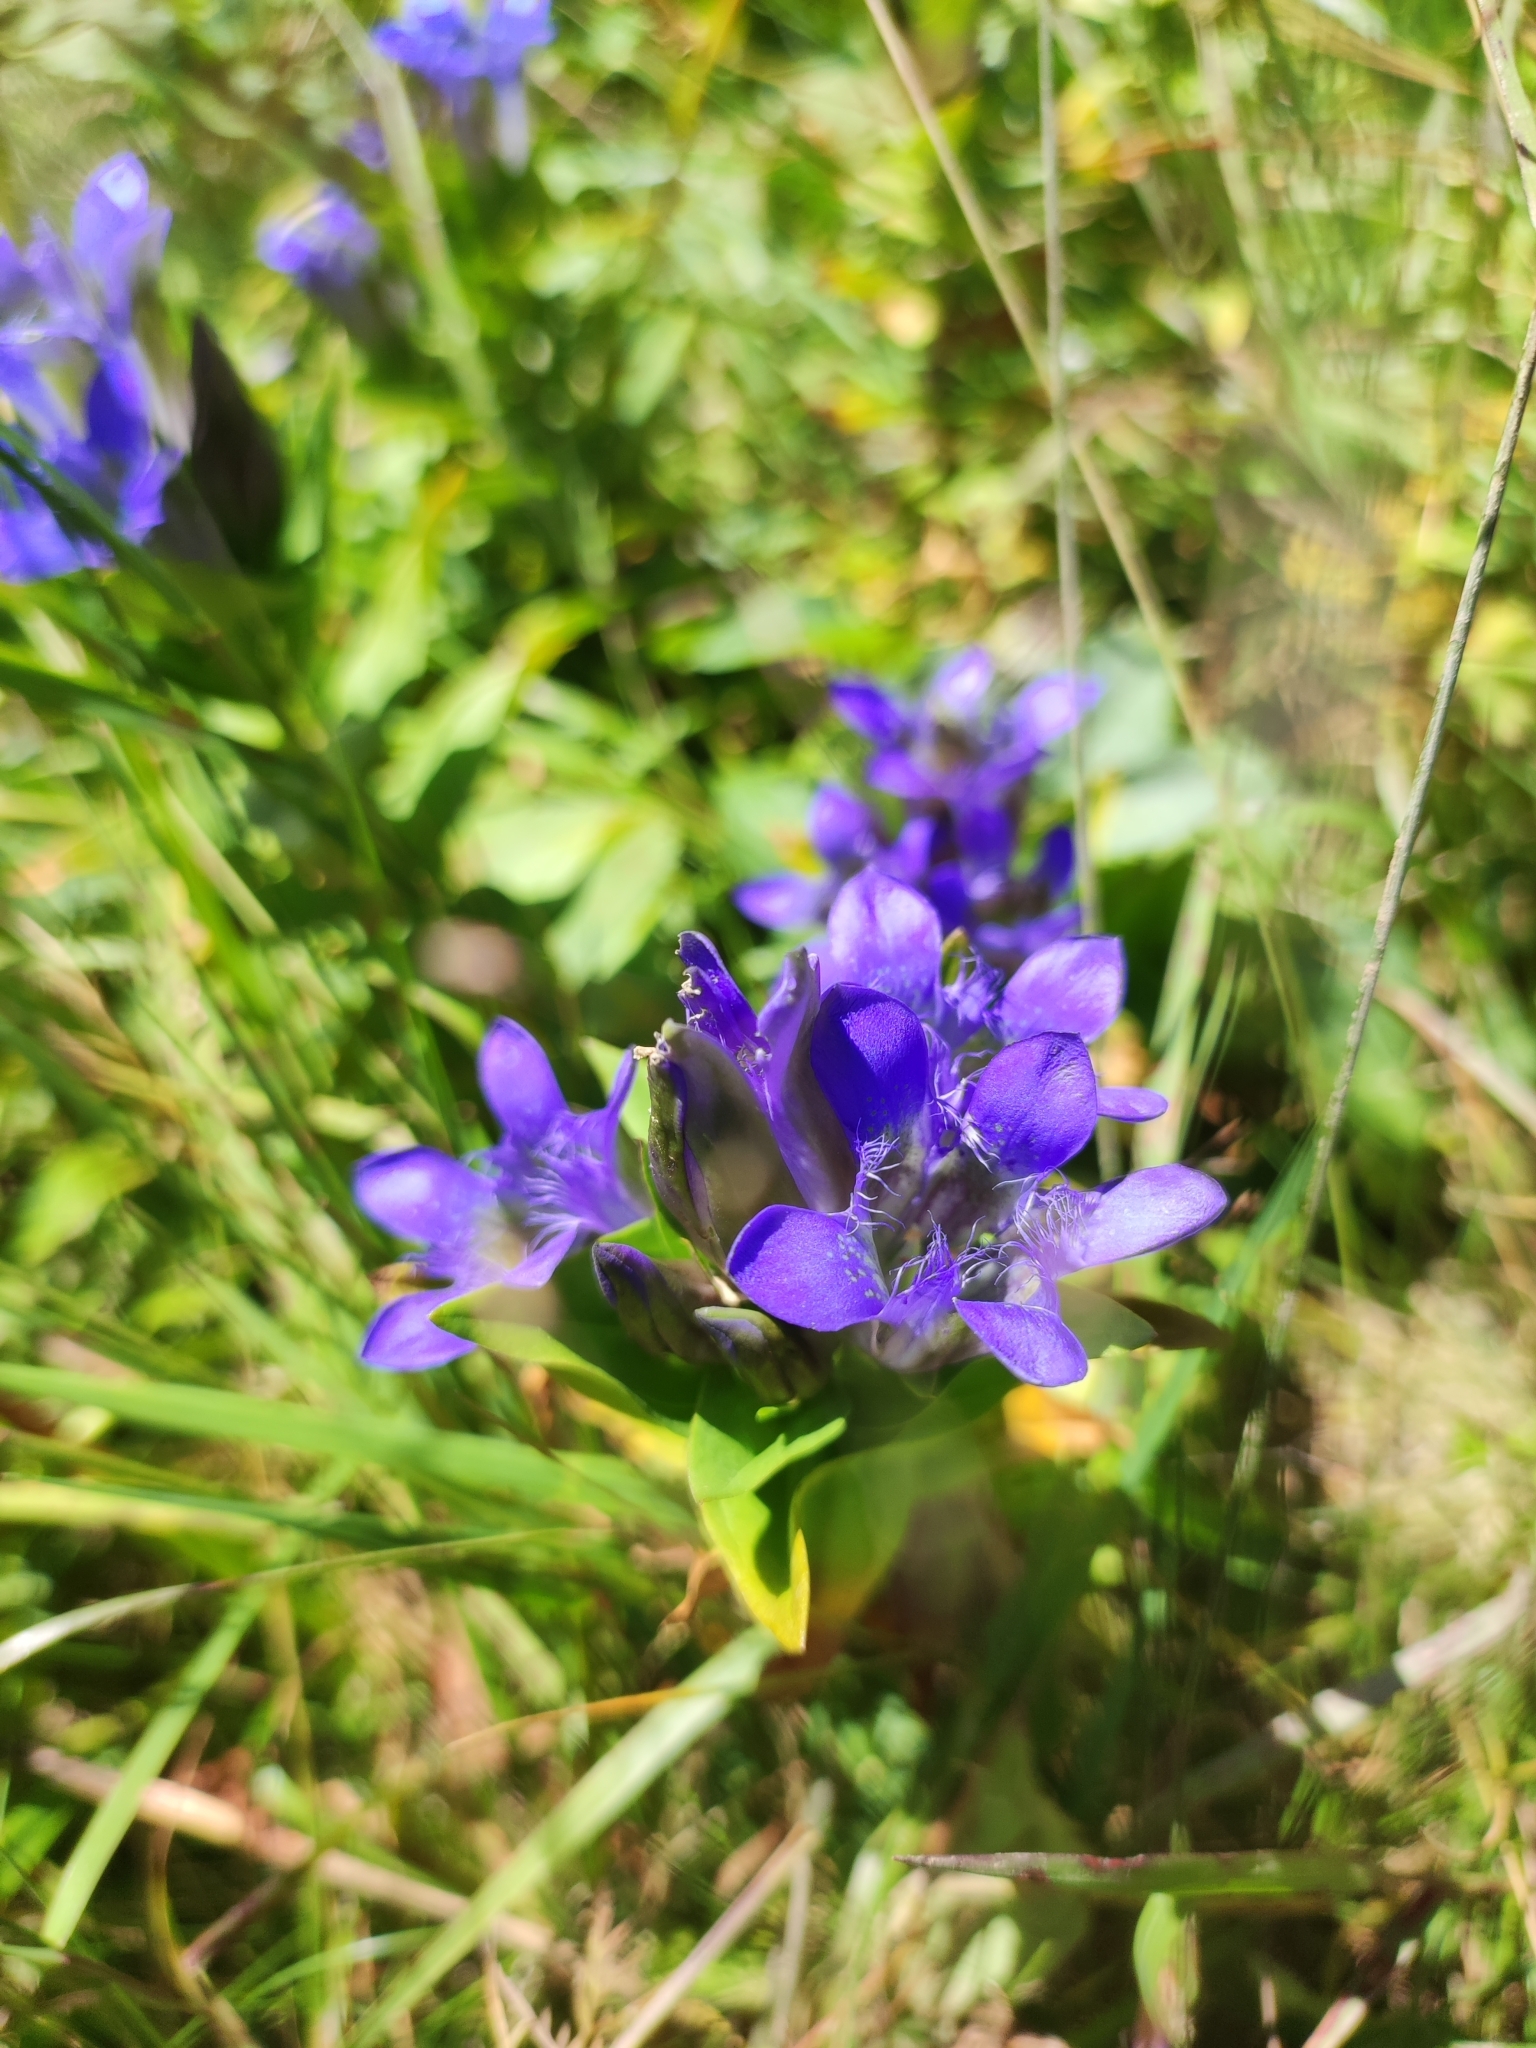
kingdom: Plantae
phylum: Tracheophyta
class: Magnoliopsida
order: Gentianales
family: Gentianaceae
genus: Gentiana
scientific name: Gentiana septemfida
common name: Crested gentian
